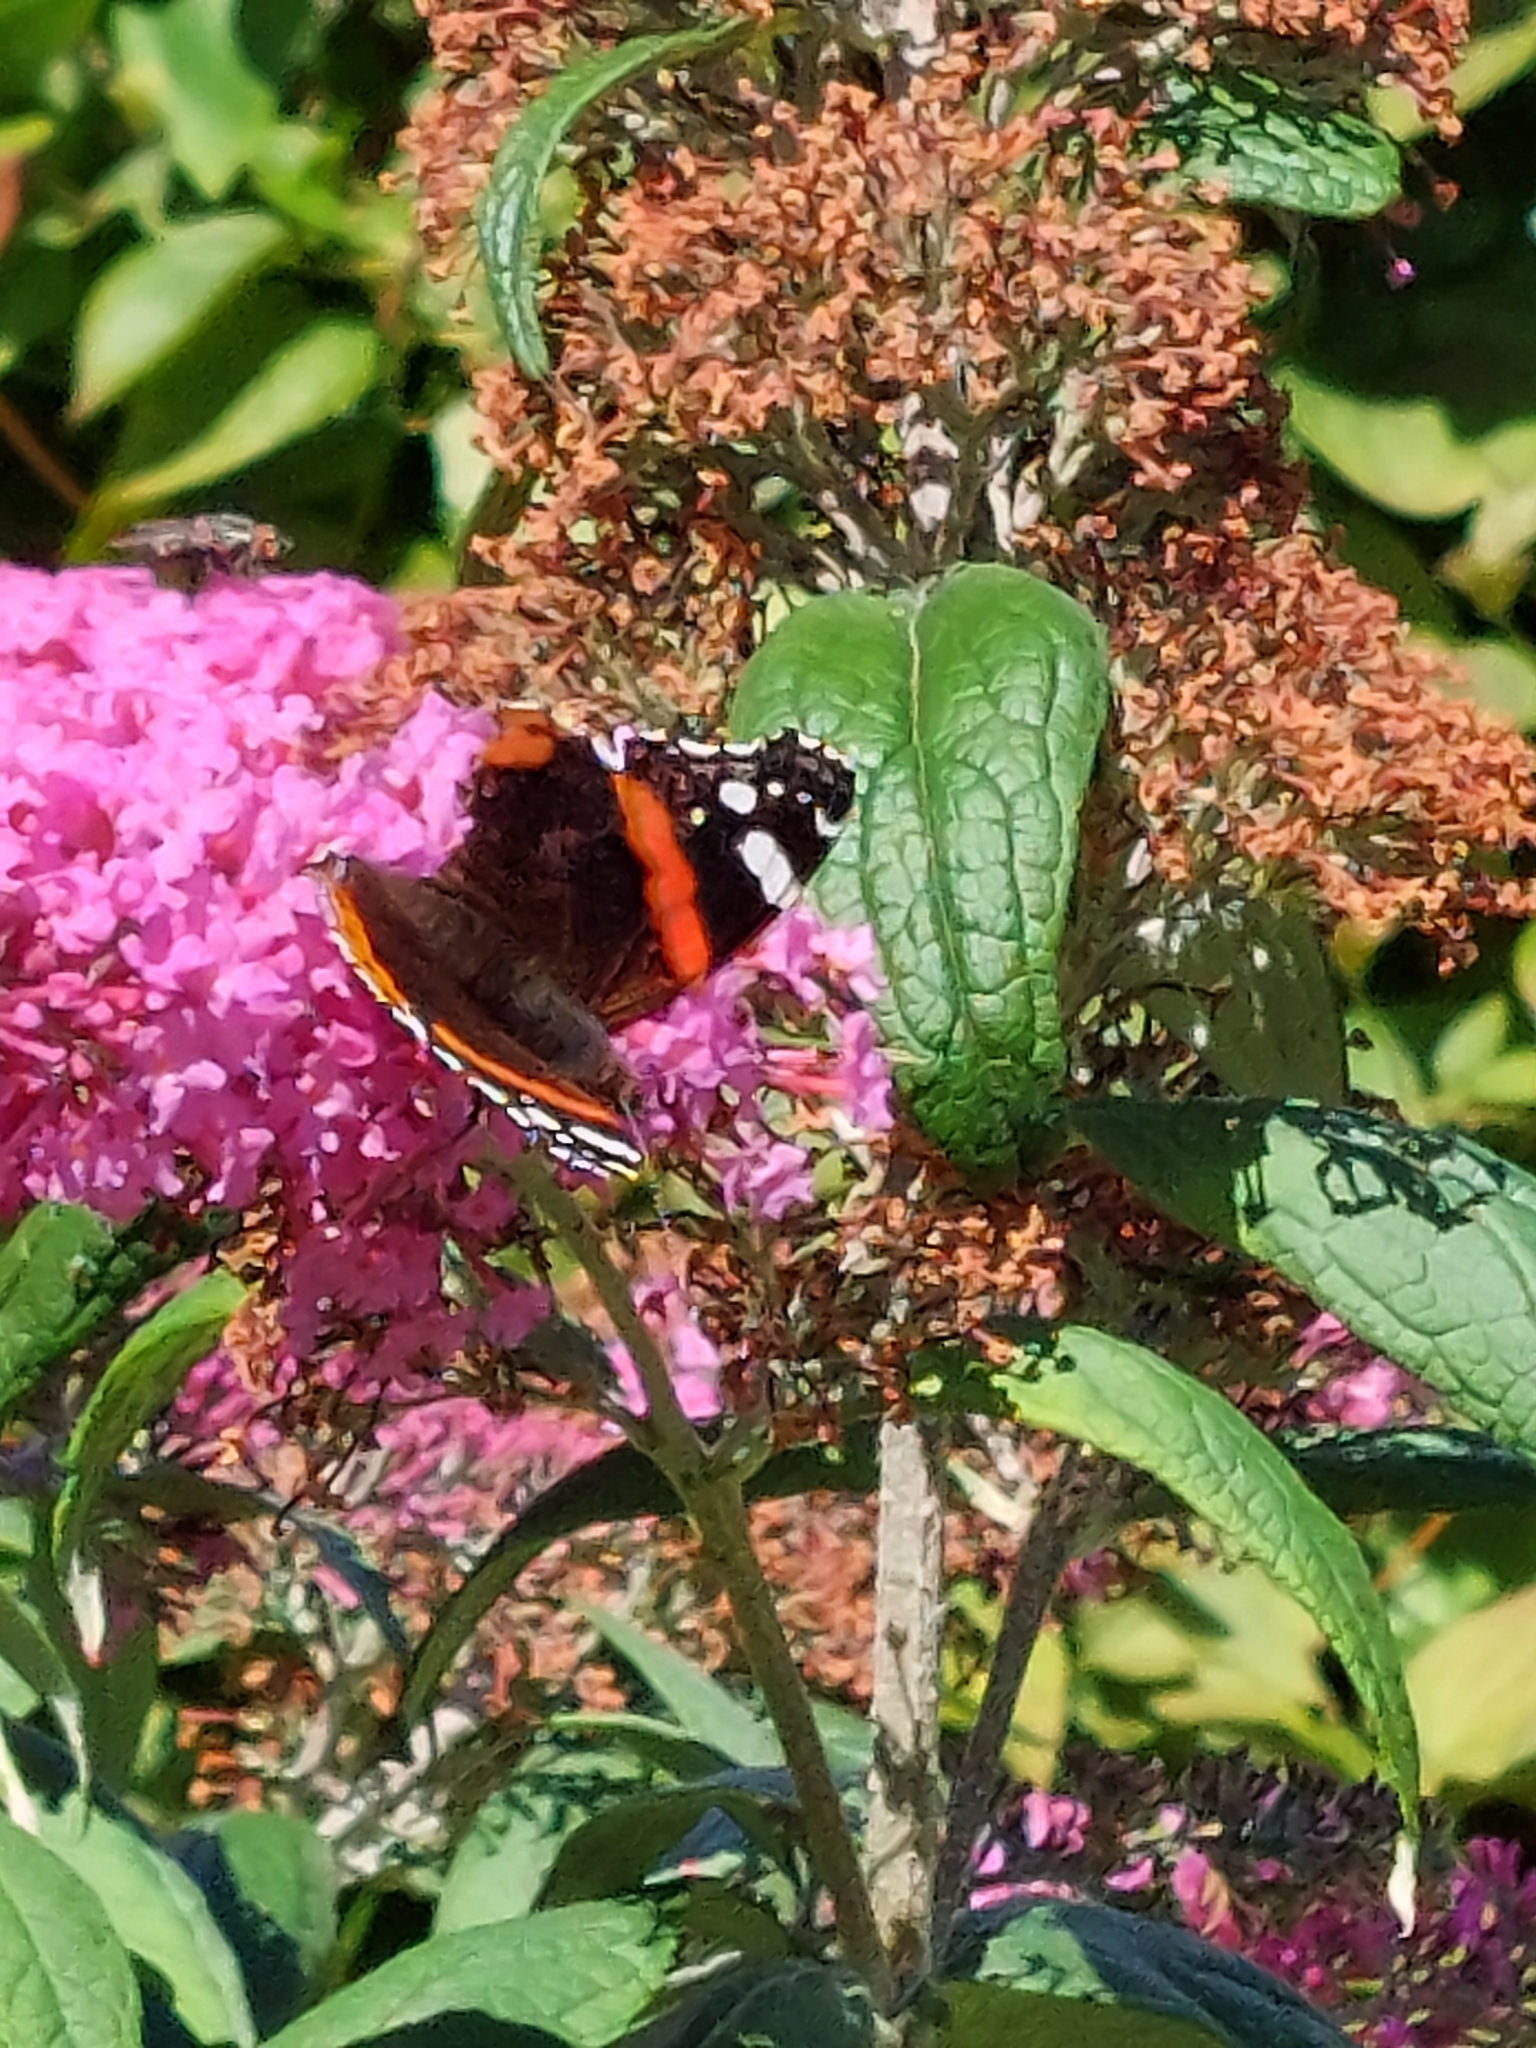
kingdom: Animalia
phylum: Arthropoda
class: Insecta
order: Lepidoptera
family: Nymphalidae
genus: Vanessa
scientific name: Vanessa atalanta
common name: Red admiral
